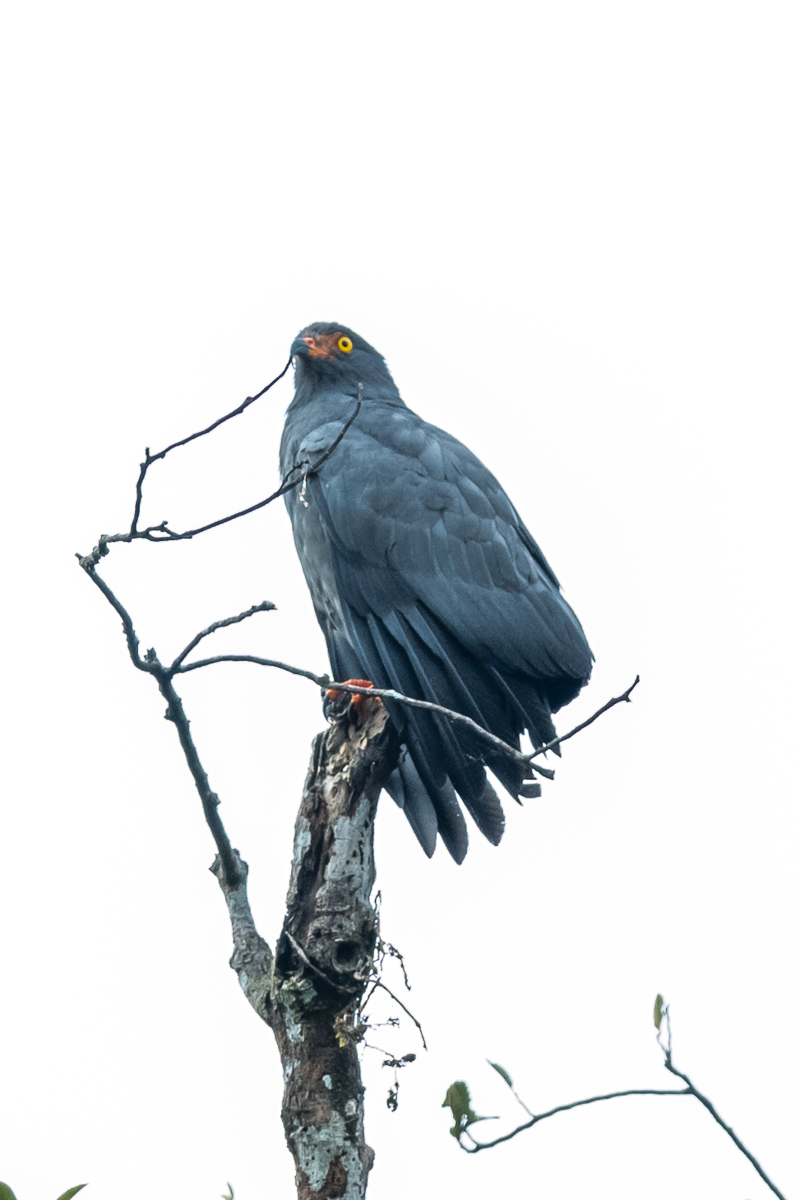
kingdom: Animalia
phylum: Chordata
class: Aves
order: Accipitriformes
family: Accipitridae
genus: Helicolestes
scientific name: Helicolestes hamatus
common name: Slender-billed kite
